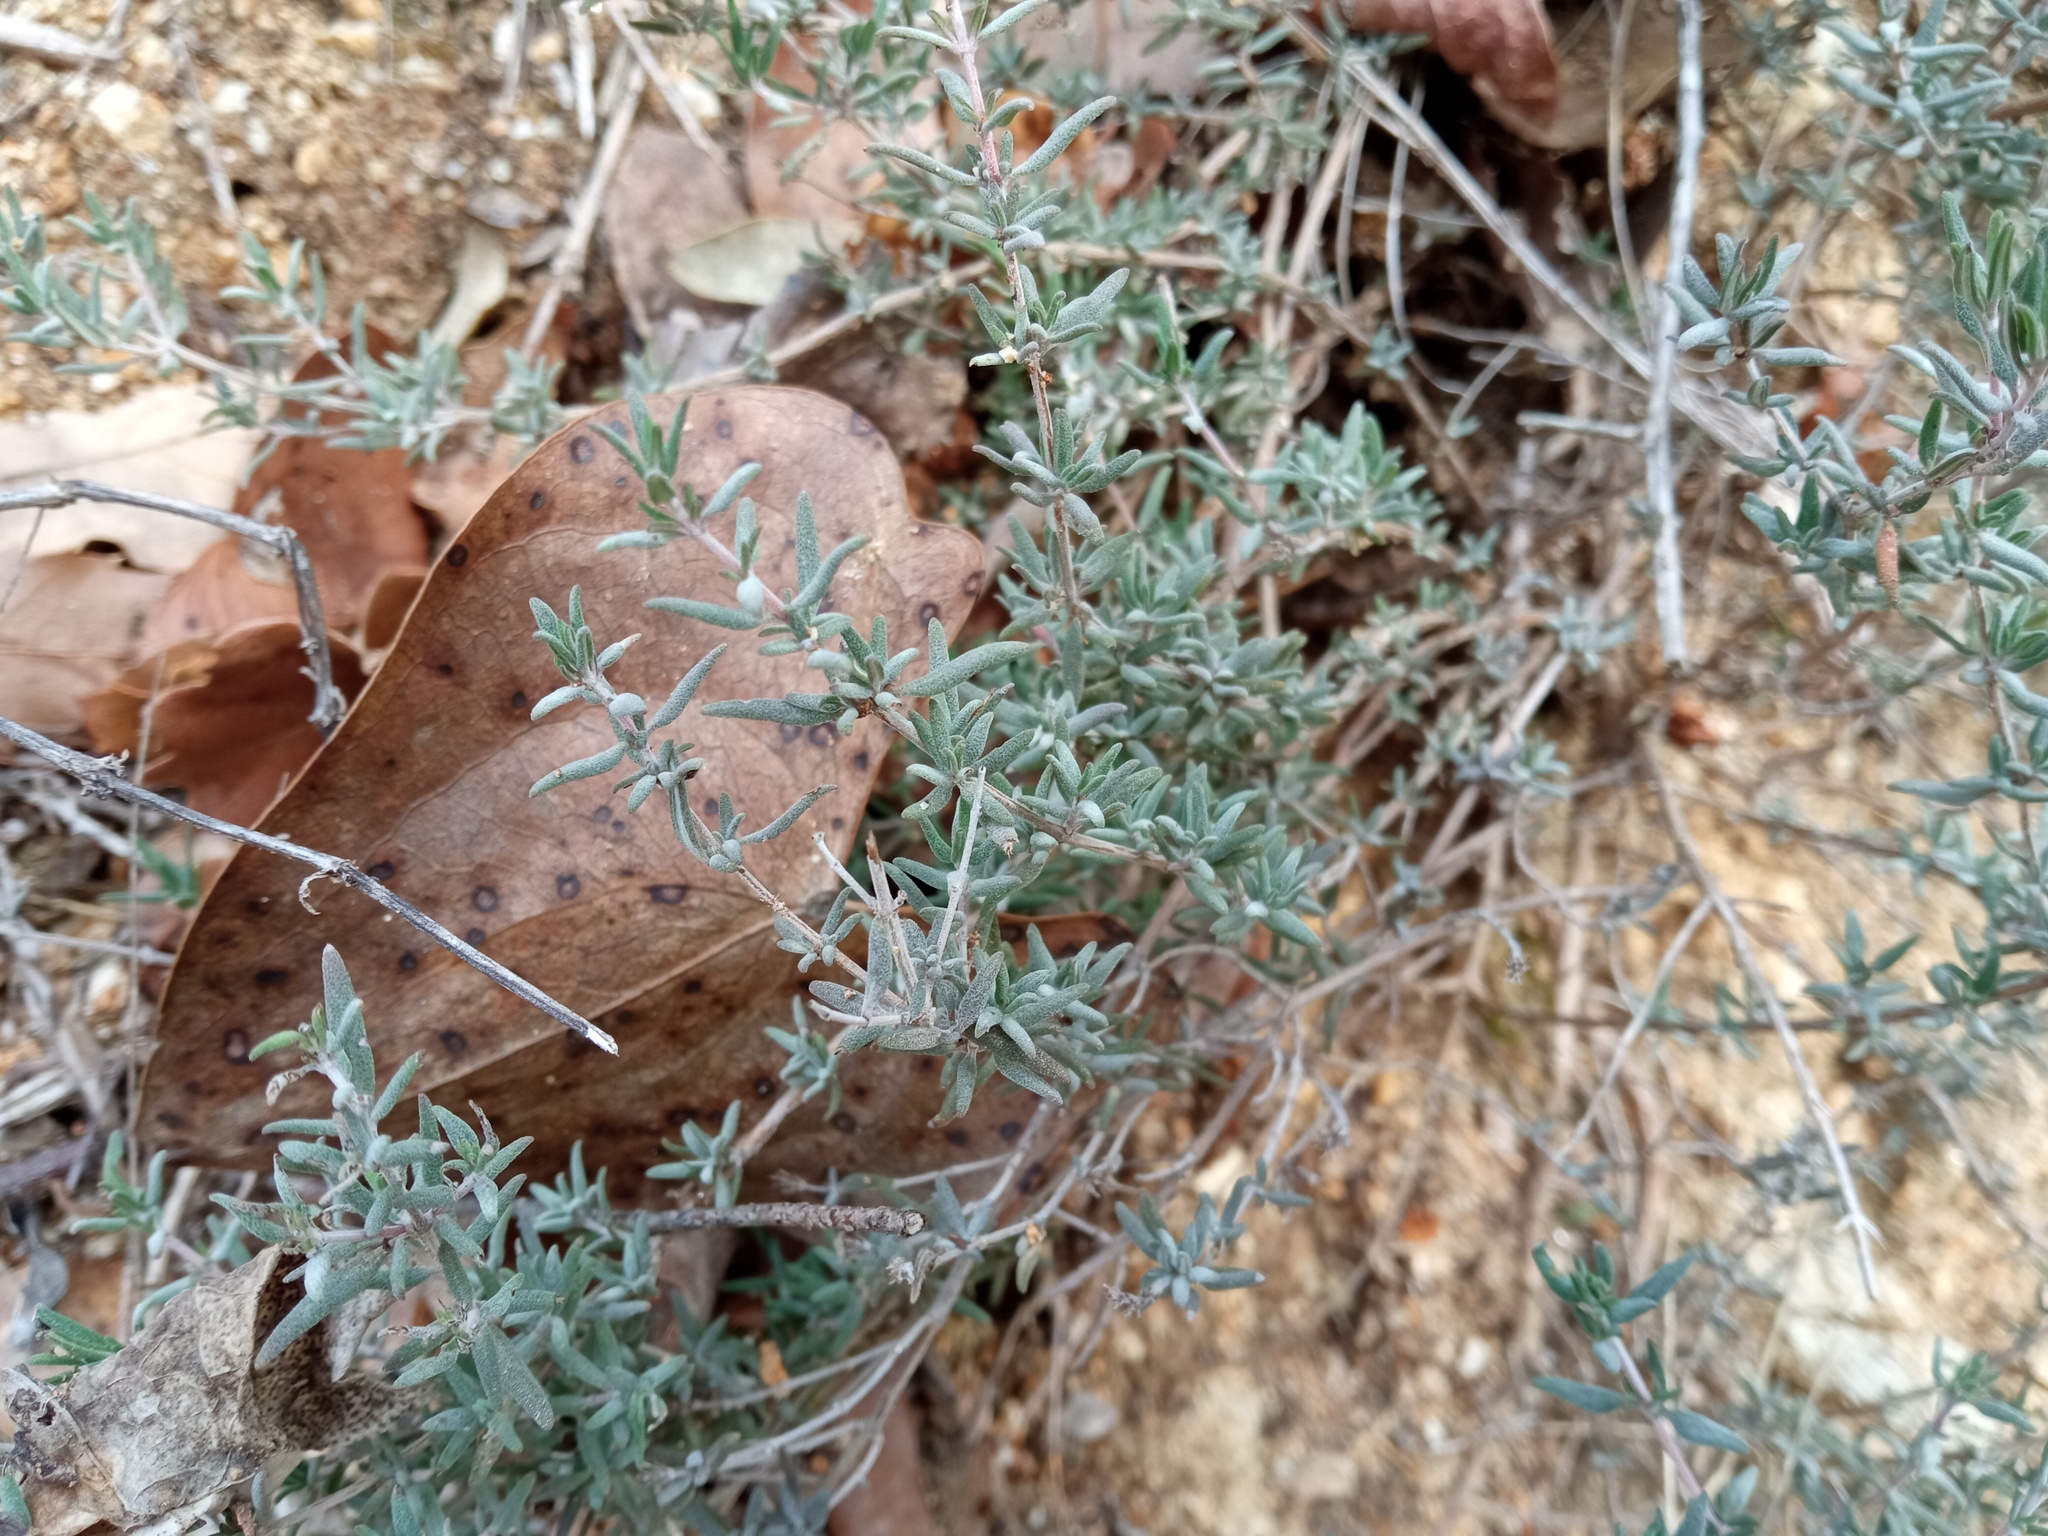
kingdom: Plantae
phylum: Tracheophyta
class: Magnoliopsida
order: Lamiales
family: Lamiaceae
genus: Thymus
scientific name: Thymus vulgaris
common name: Garden thyme
